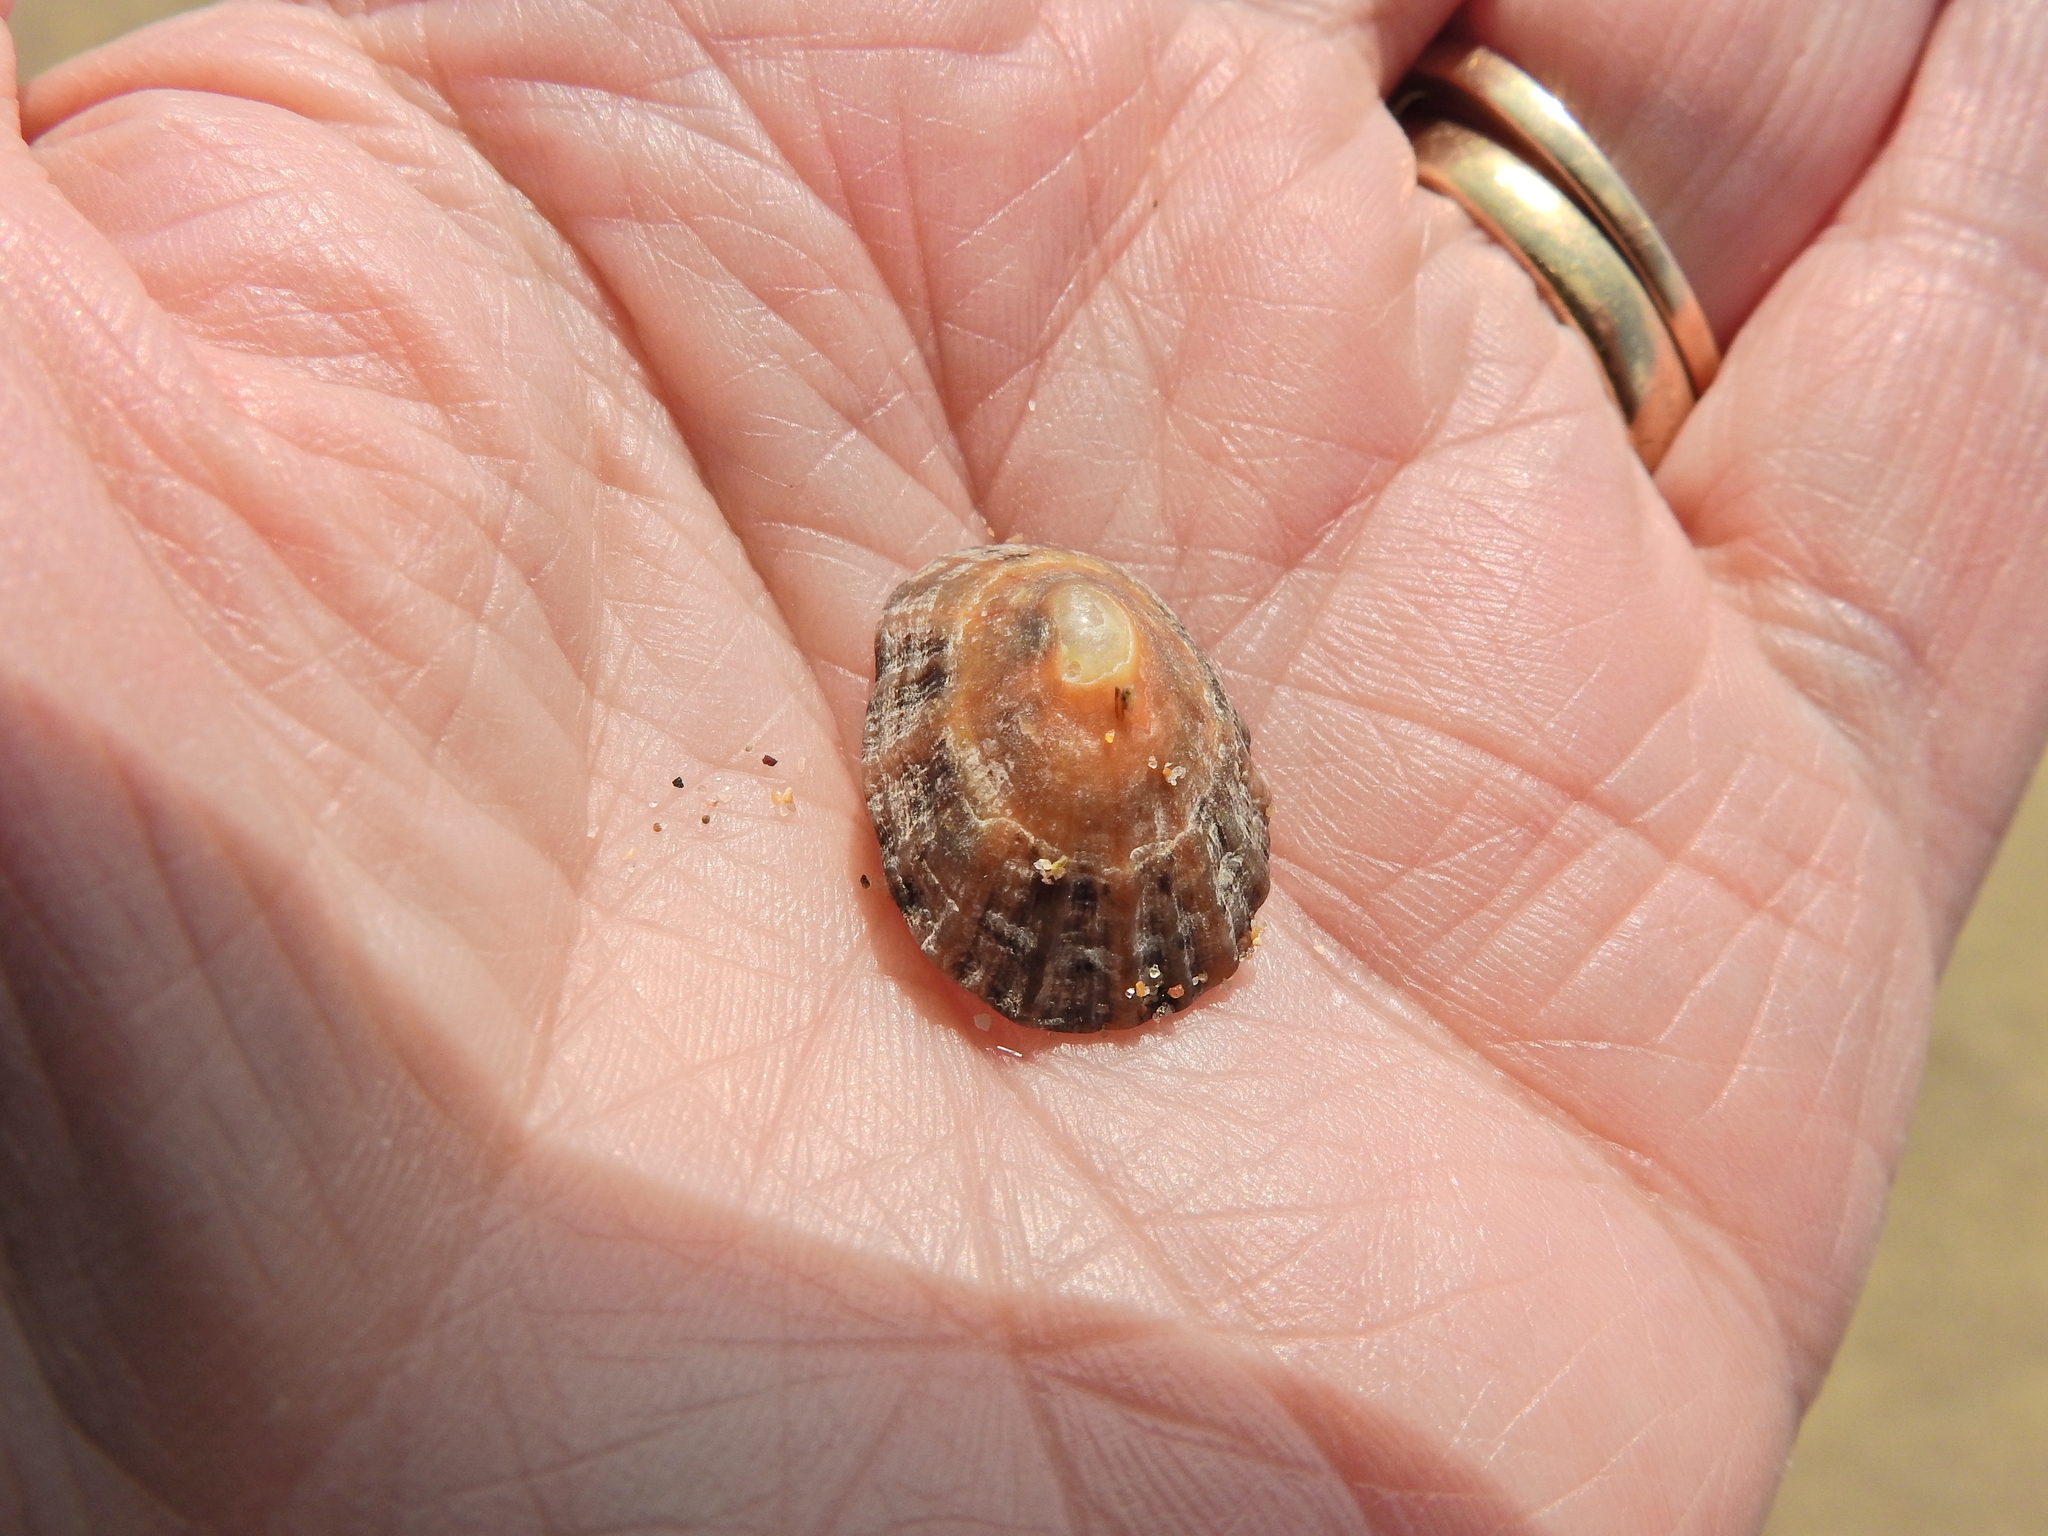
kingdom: Animalia
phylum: Mollusca
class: Gastropoda
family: Patellidae
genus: Patella
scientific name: Patella vulgata
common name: Common limpet
